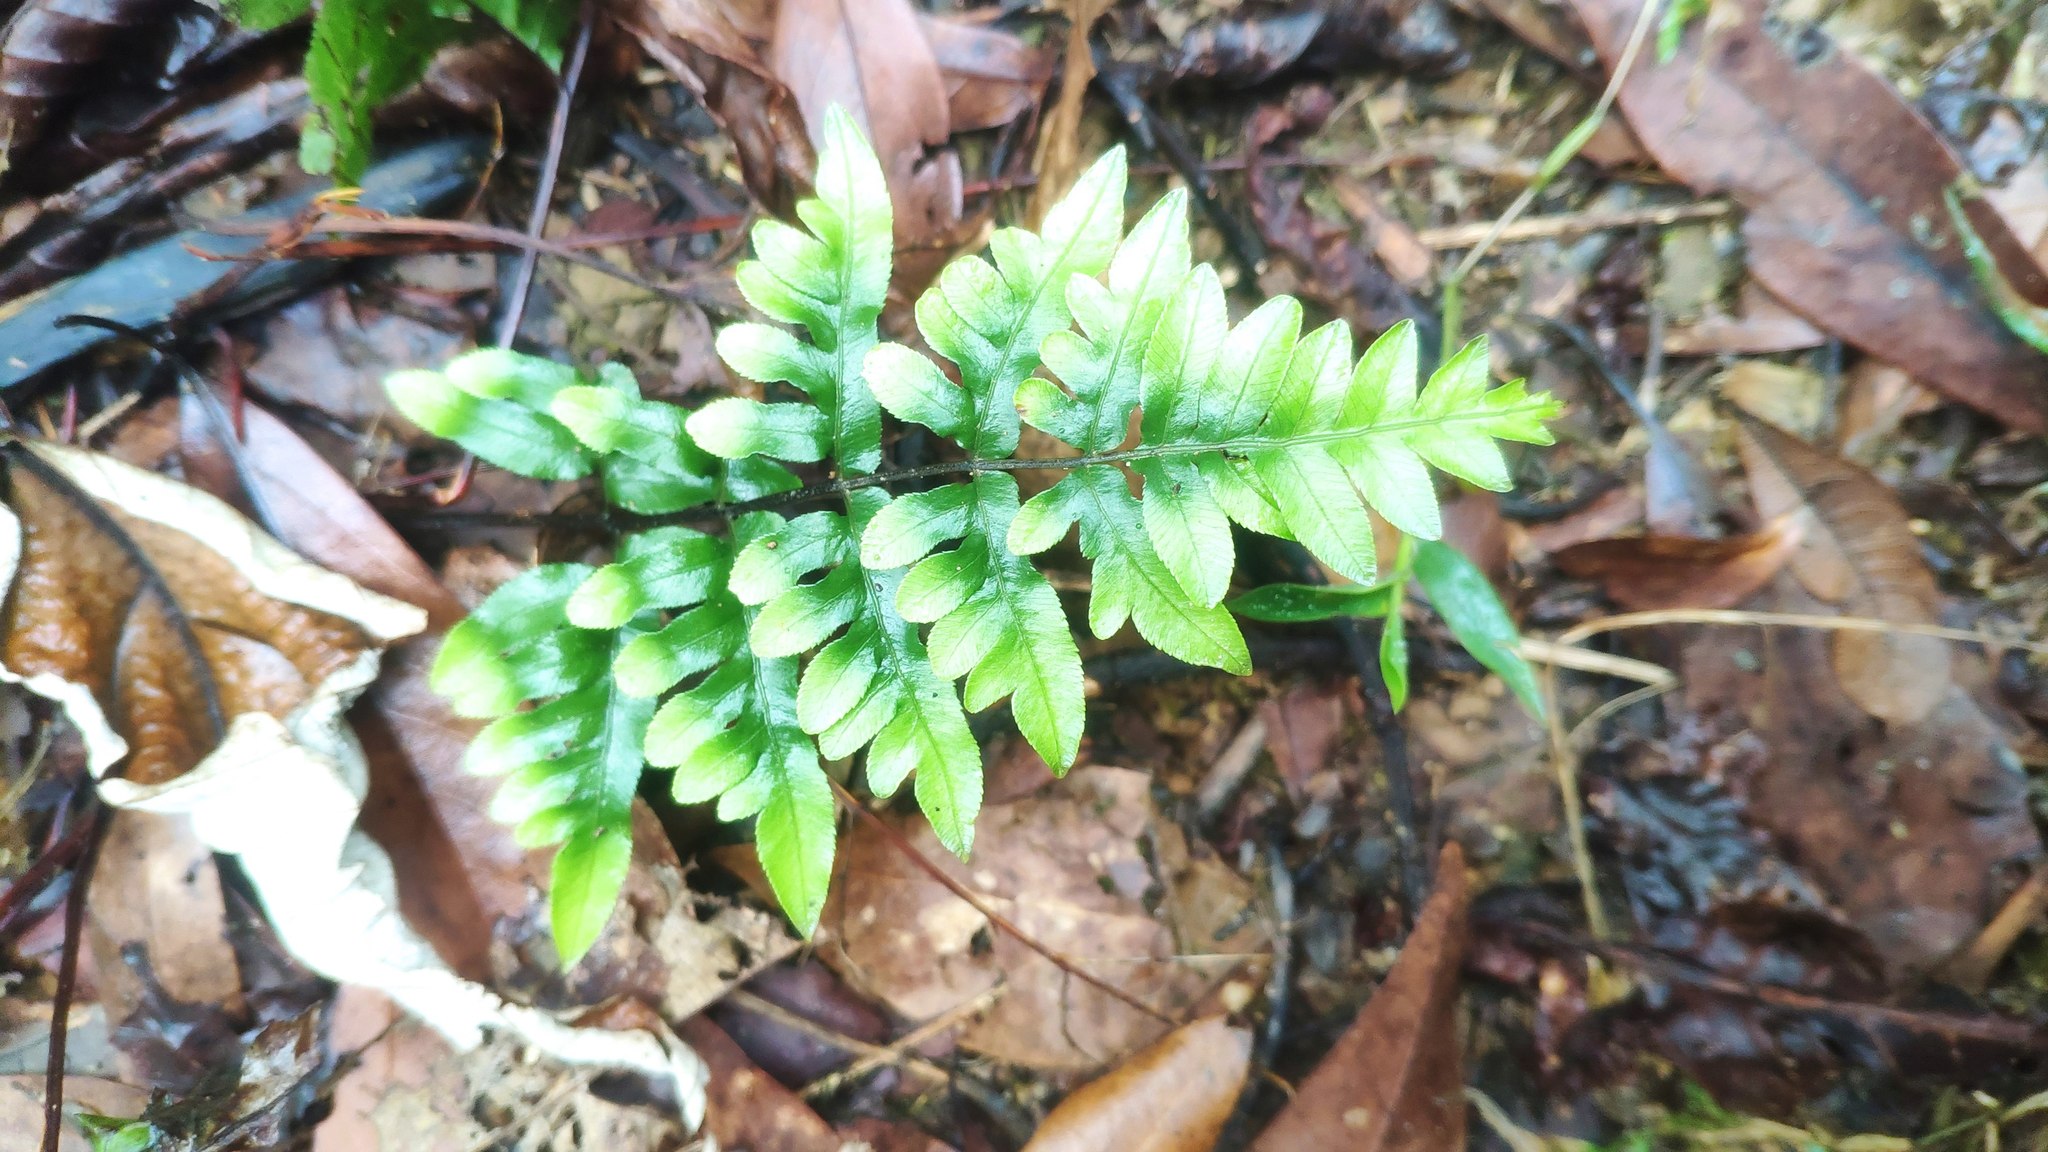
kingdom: Plantae
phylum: Tracheophyta
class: Polypodiopsida
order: Polypodiales
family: Pteridaceae
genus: Pteris
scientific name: Pteris semipinnata
